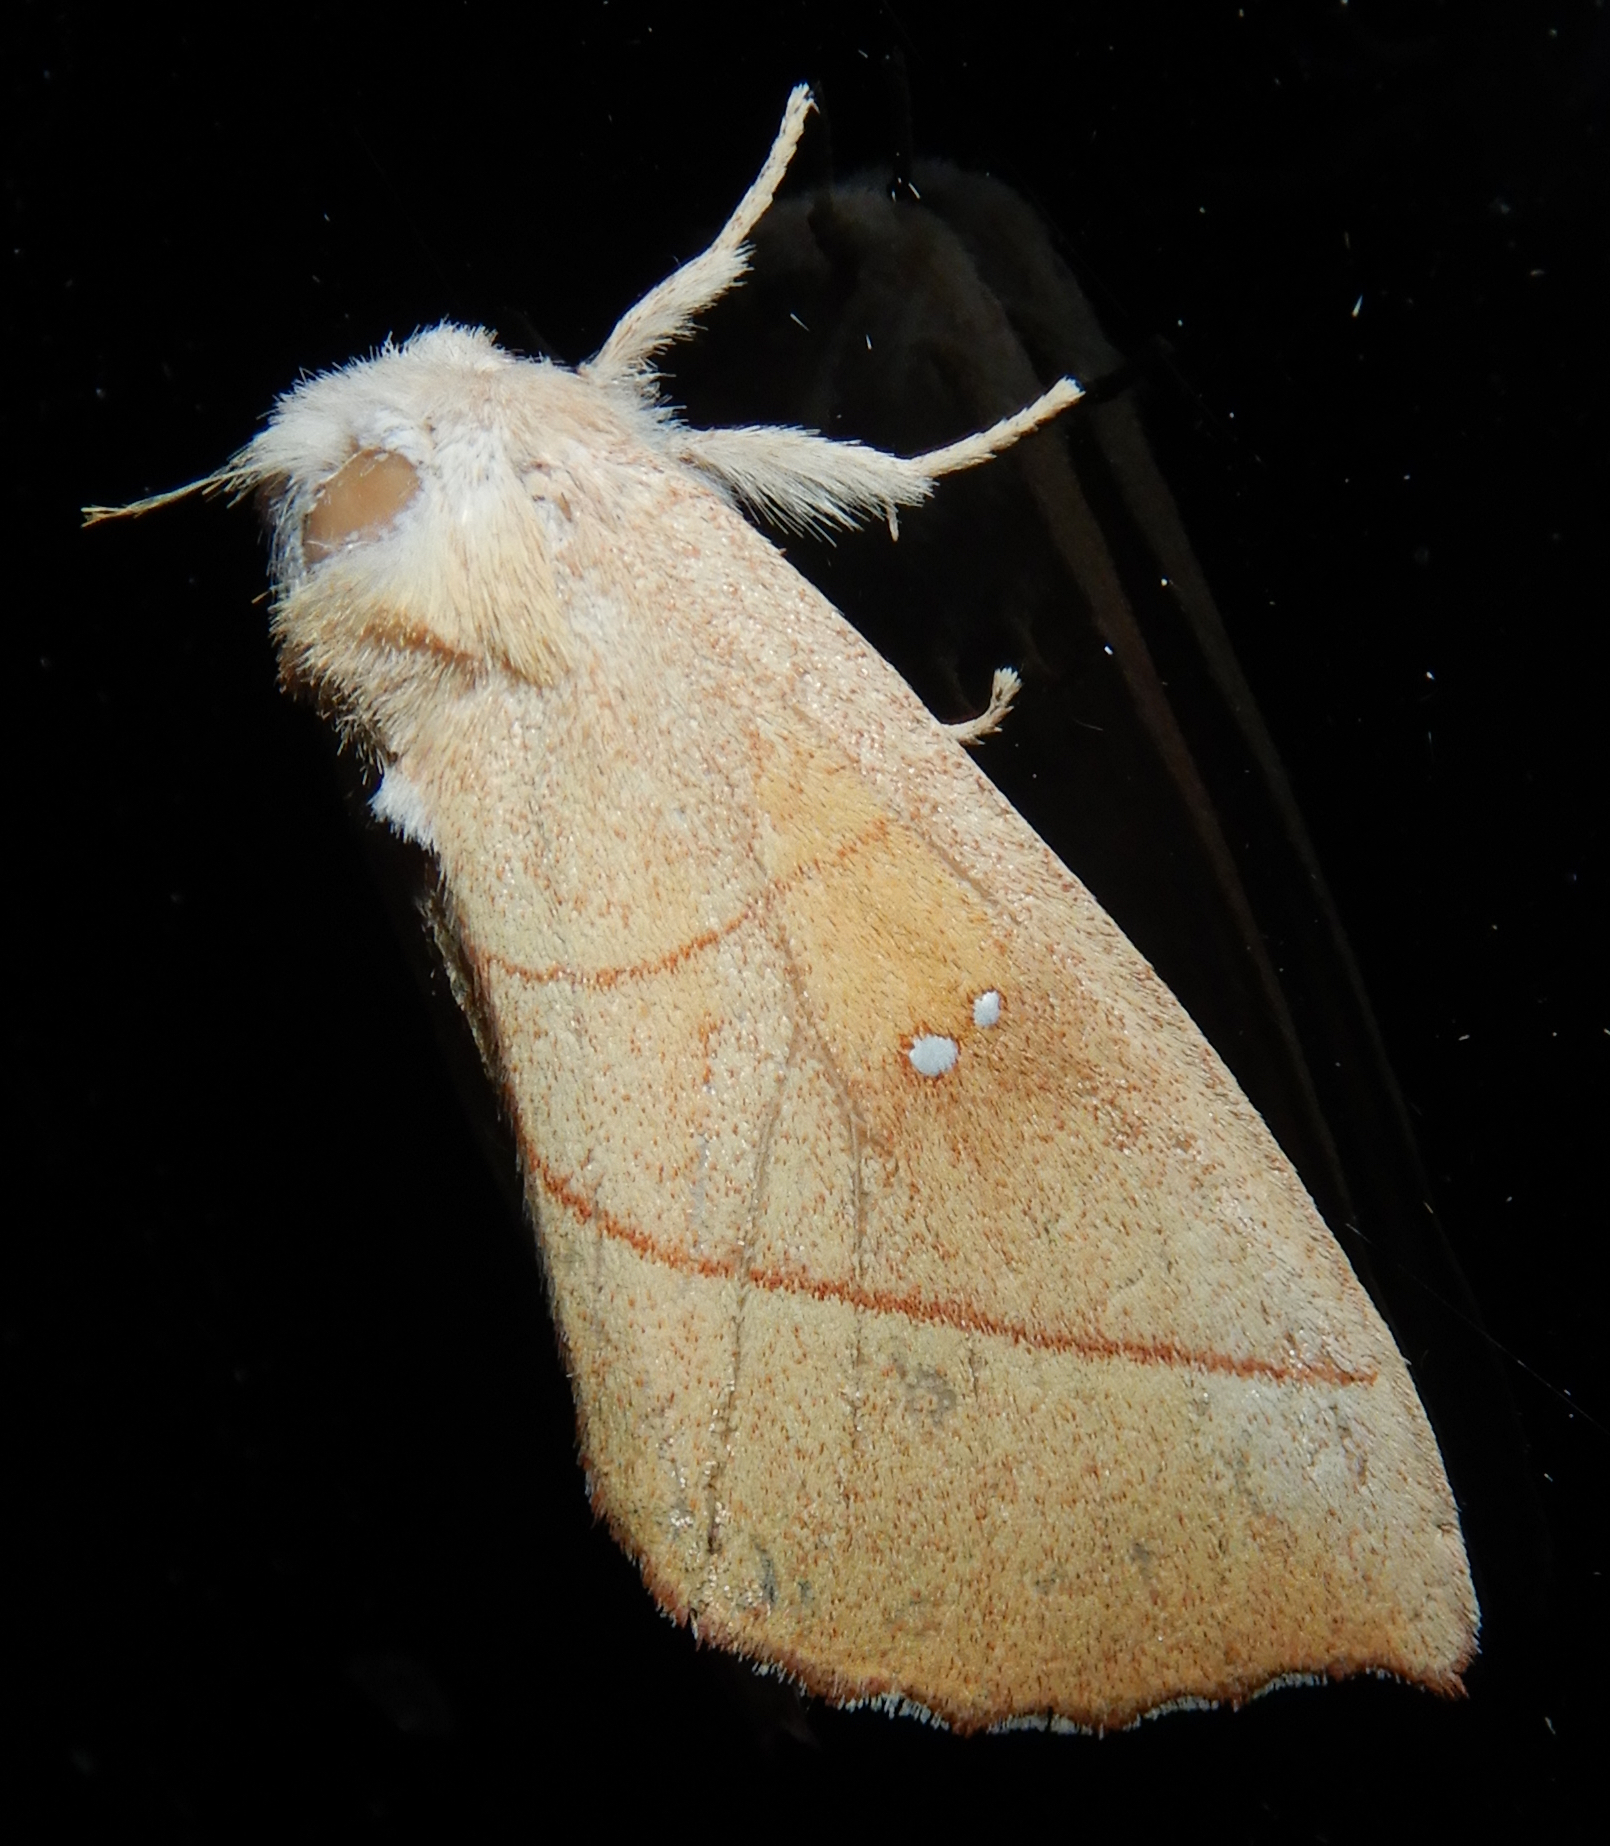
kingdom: Animalia
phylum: Arthropoda
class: Insecta
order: Lepidoptera
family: Notodontidae
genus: Nadata
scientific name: Nadata gibbosa
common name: White-dotted prominent
